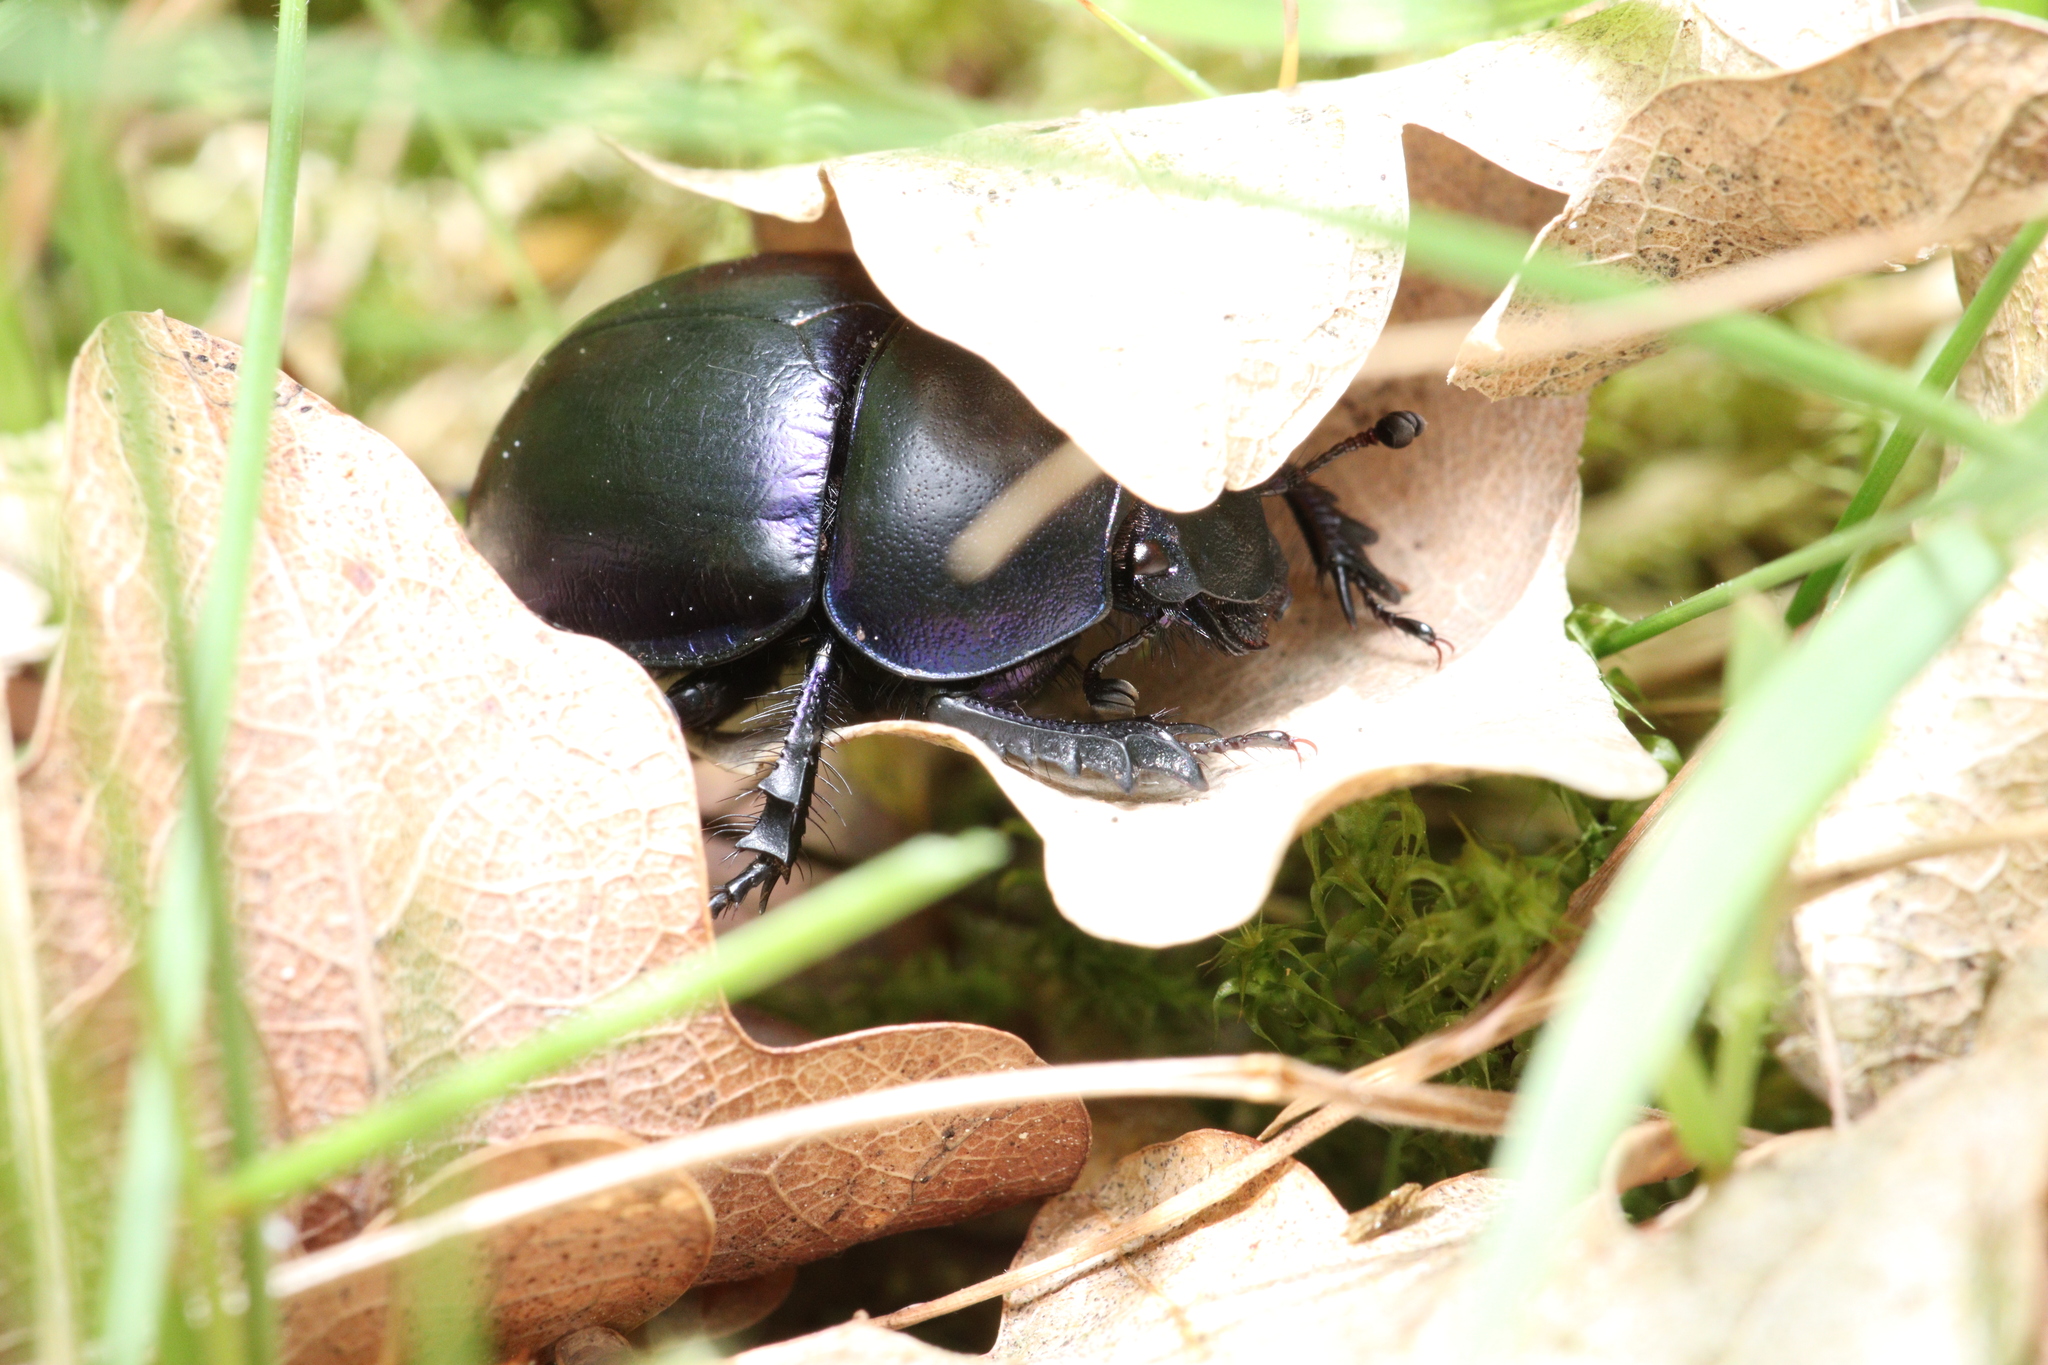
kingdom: Animalia
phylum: Arthropoda
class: Insecta
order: Coleoptera
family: Geotrupidae
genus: Trypocopris
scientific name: Trypocopris vernalis
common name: Spring dumbledor
